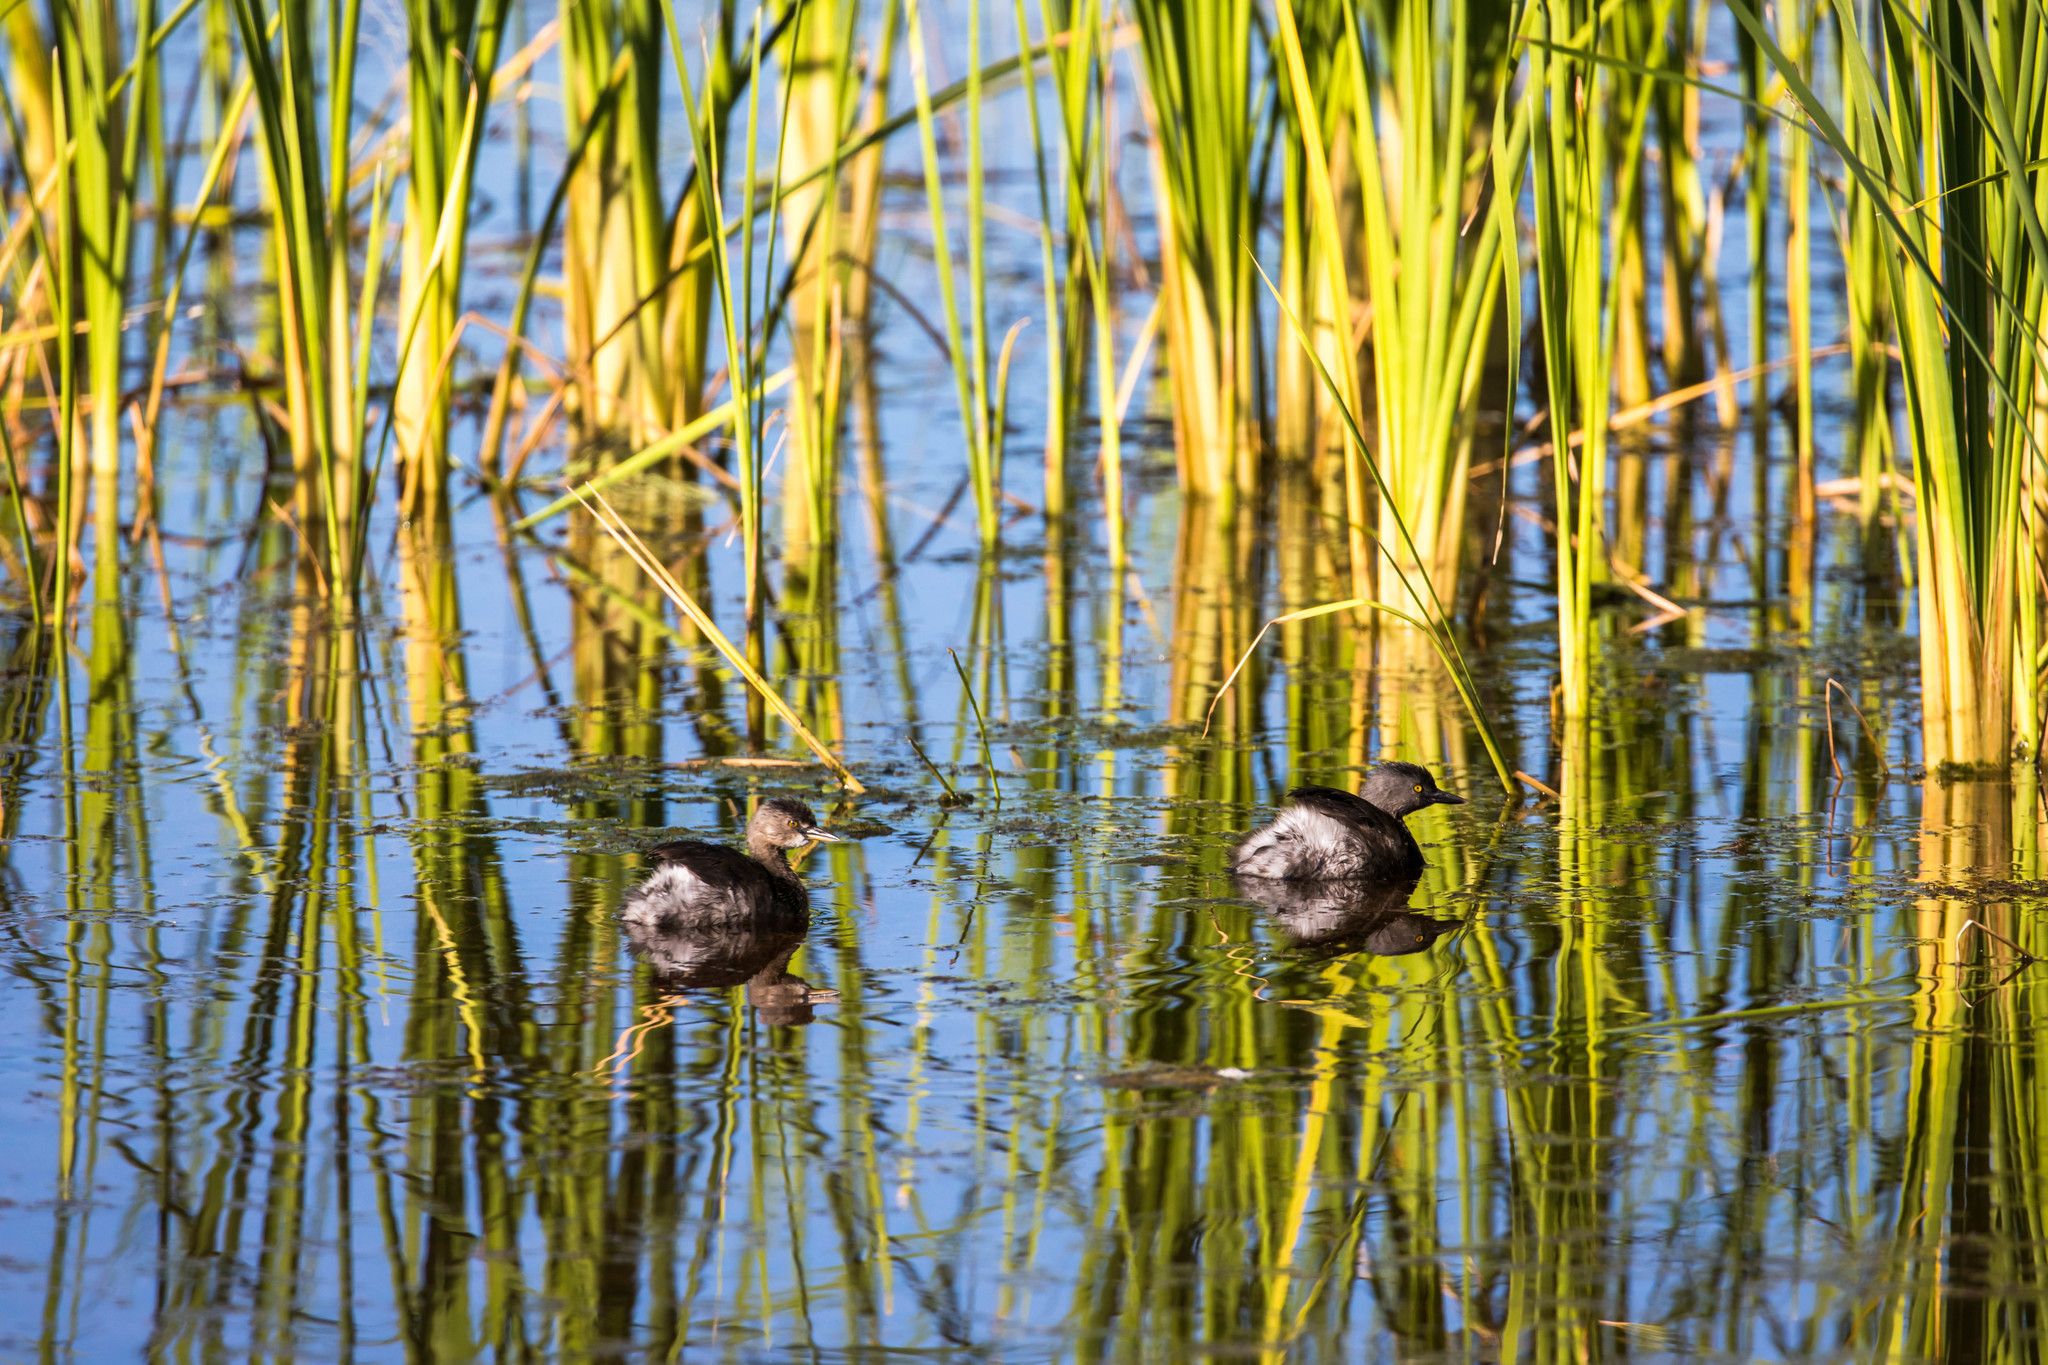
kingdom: Animalia
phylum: Chordata
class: Aves
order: Podicipediformes
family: Podicipedidae
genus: Tachybaptus
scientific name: Tachybaptus dominicus
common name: Least grebe
